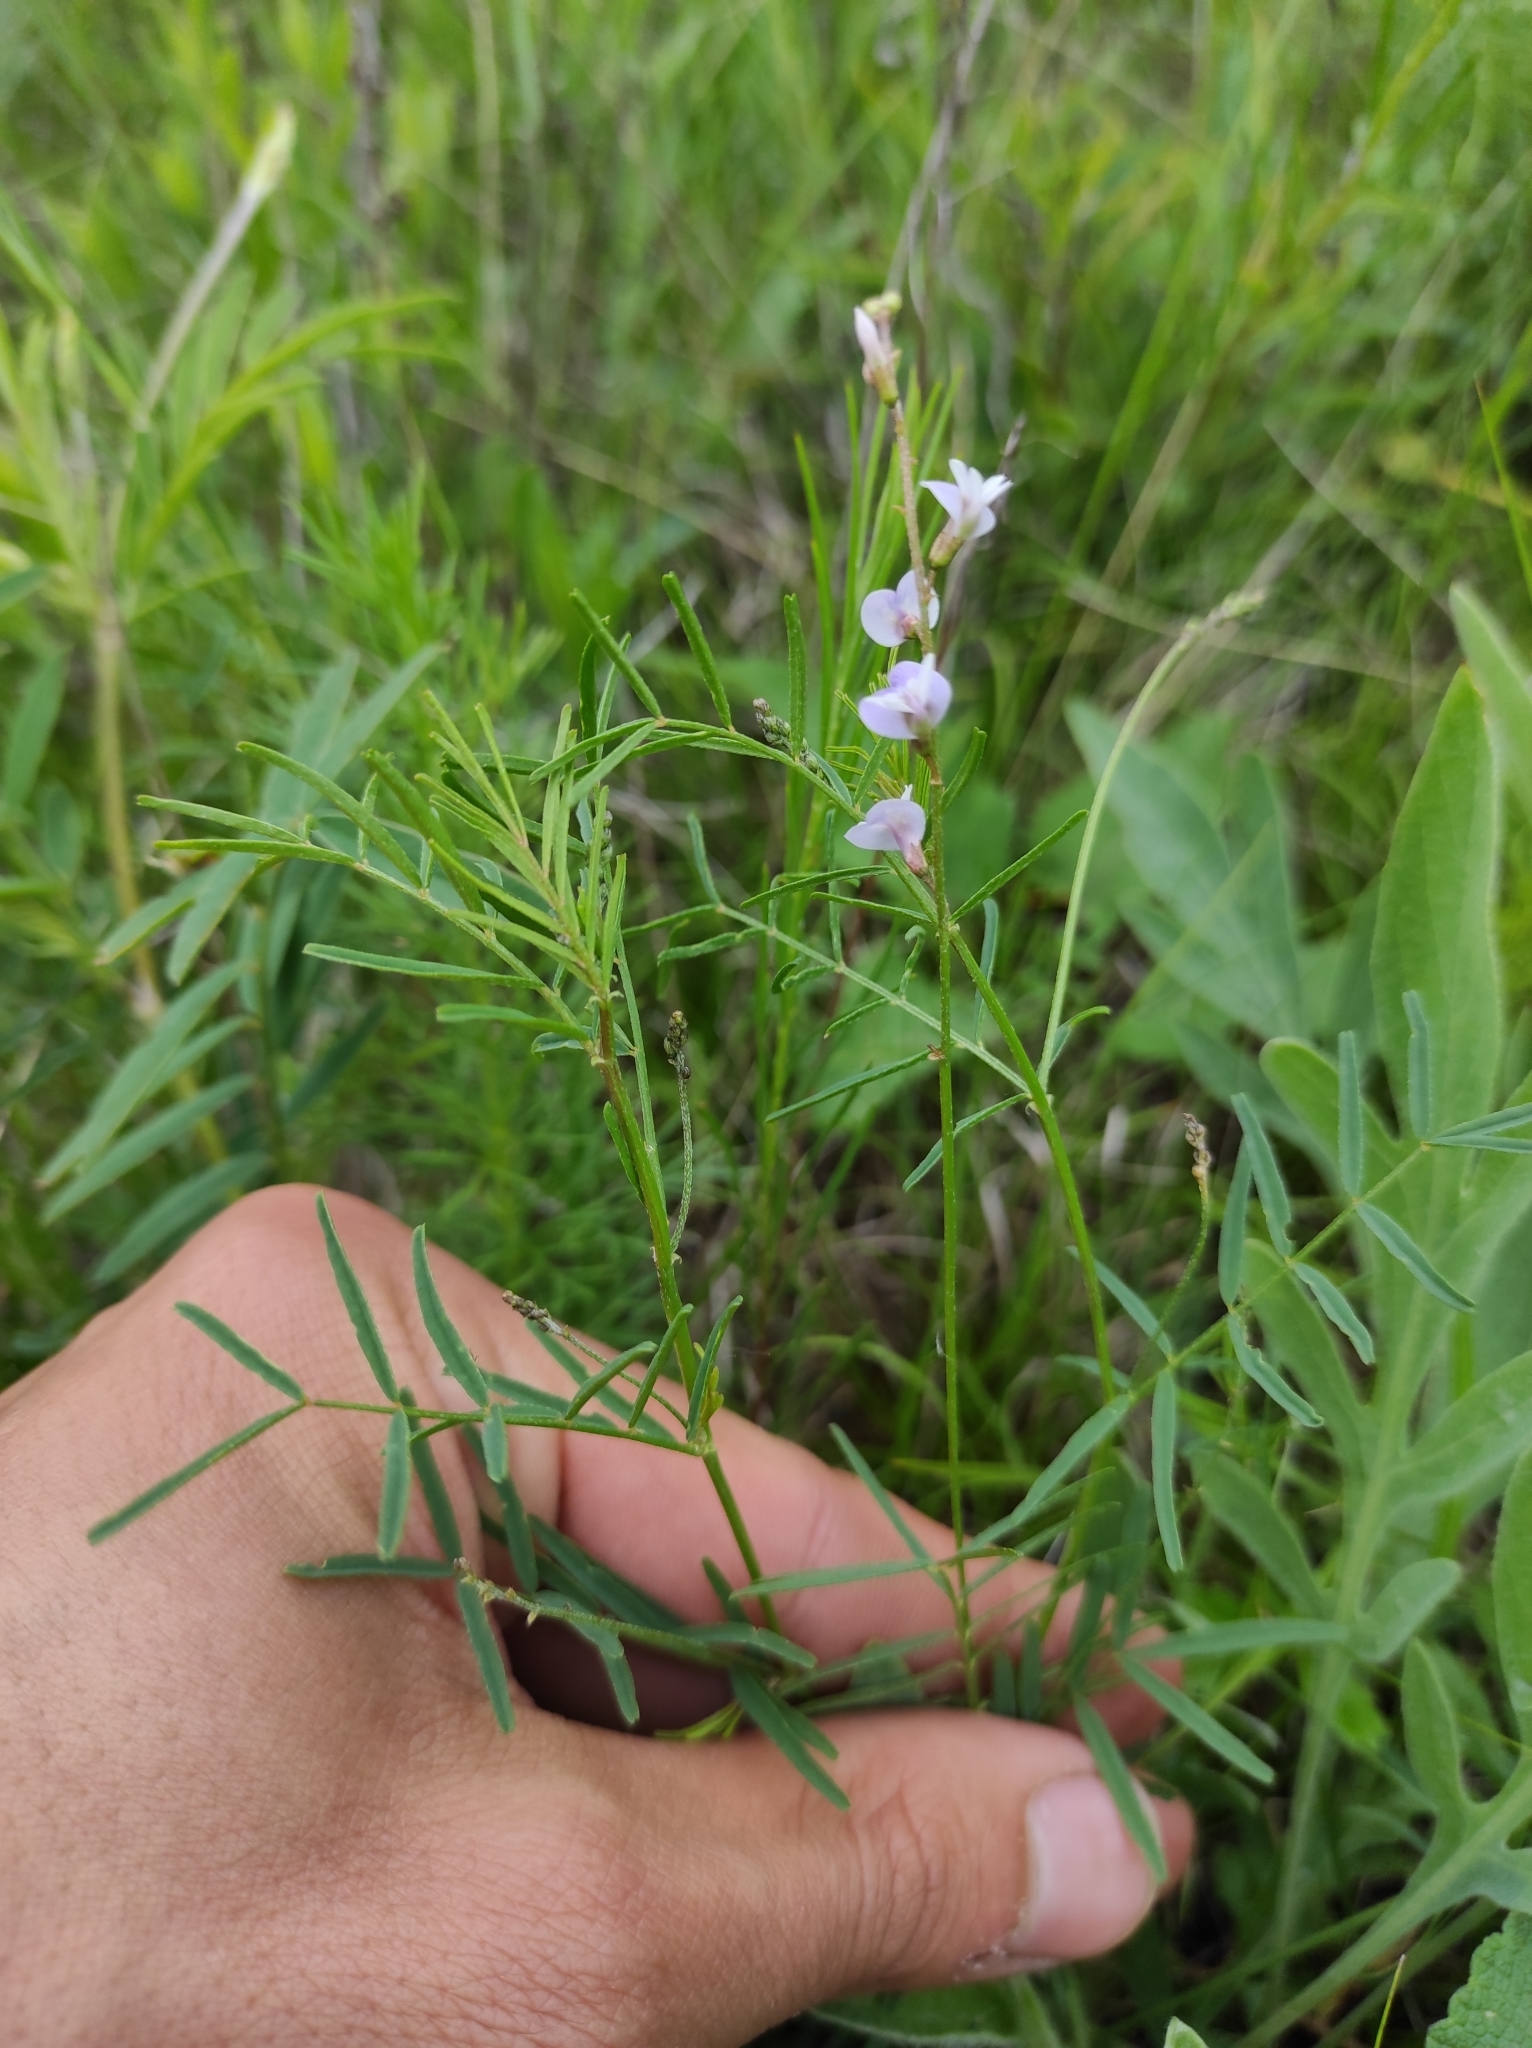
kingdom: Plantae
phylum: Tracheophyta
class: Magnoliopsida
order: Fabales
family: Fabaceae
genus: Astragalus
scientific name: Astragalus austriacus
